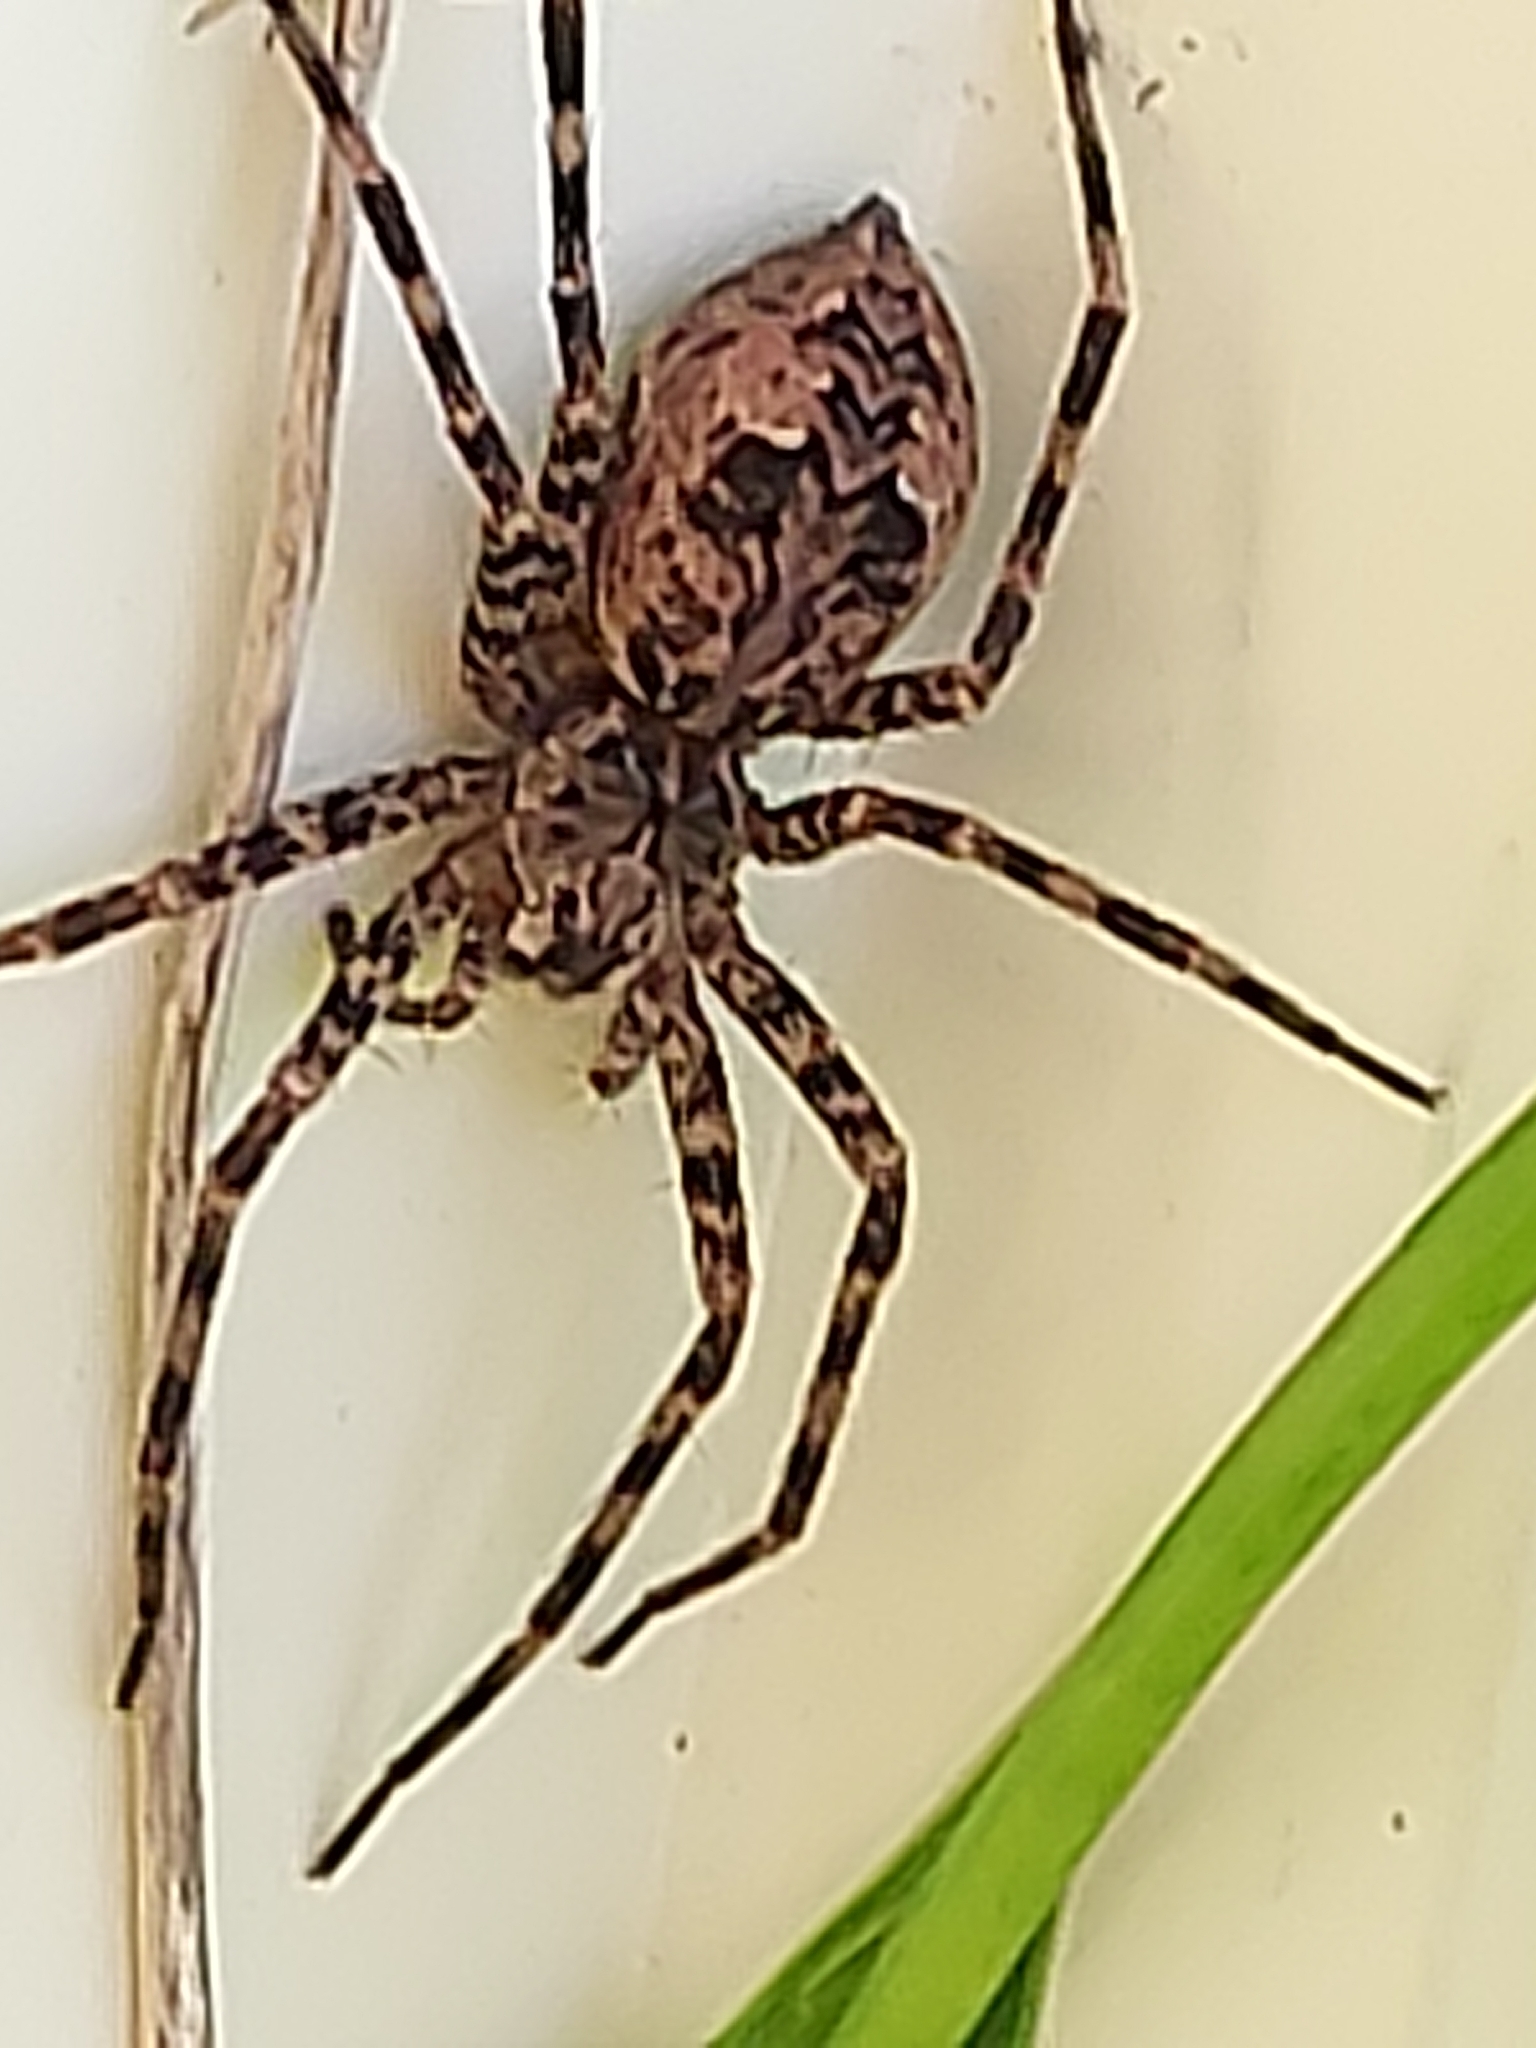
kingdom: Animalia
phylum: Arthropoda
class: Arachnida
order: Araneae
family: Pisauridae
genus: Dolomedes
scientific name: Dolomedes tenebrosus
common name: Dark fishing spider
